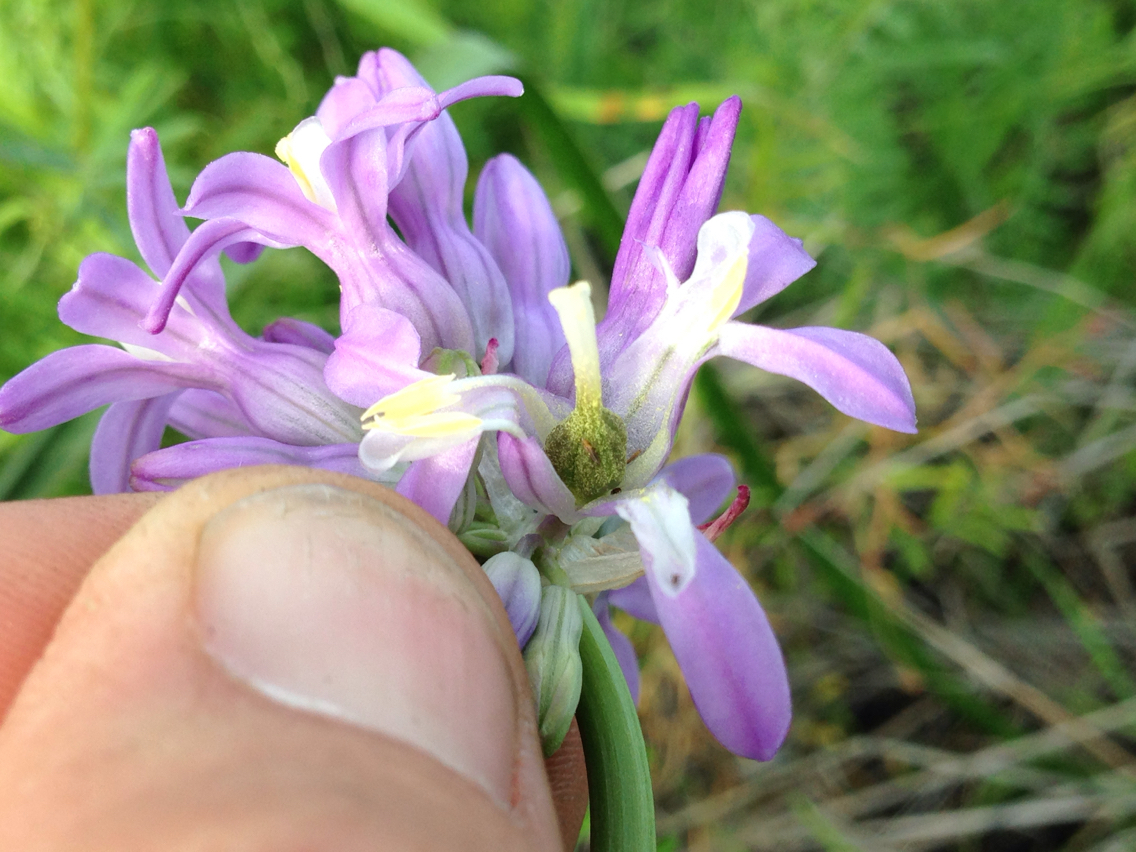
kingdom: Plantae
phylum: Tracheophyta
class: Liliopsida
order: Asparagales
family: Asparagaceae
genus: Dichelostemma
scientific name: Dichelostemma multiflorum
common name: Round-tooth ookow
